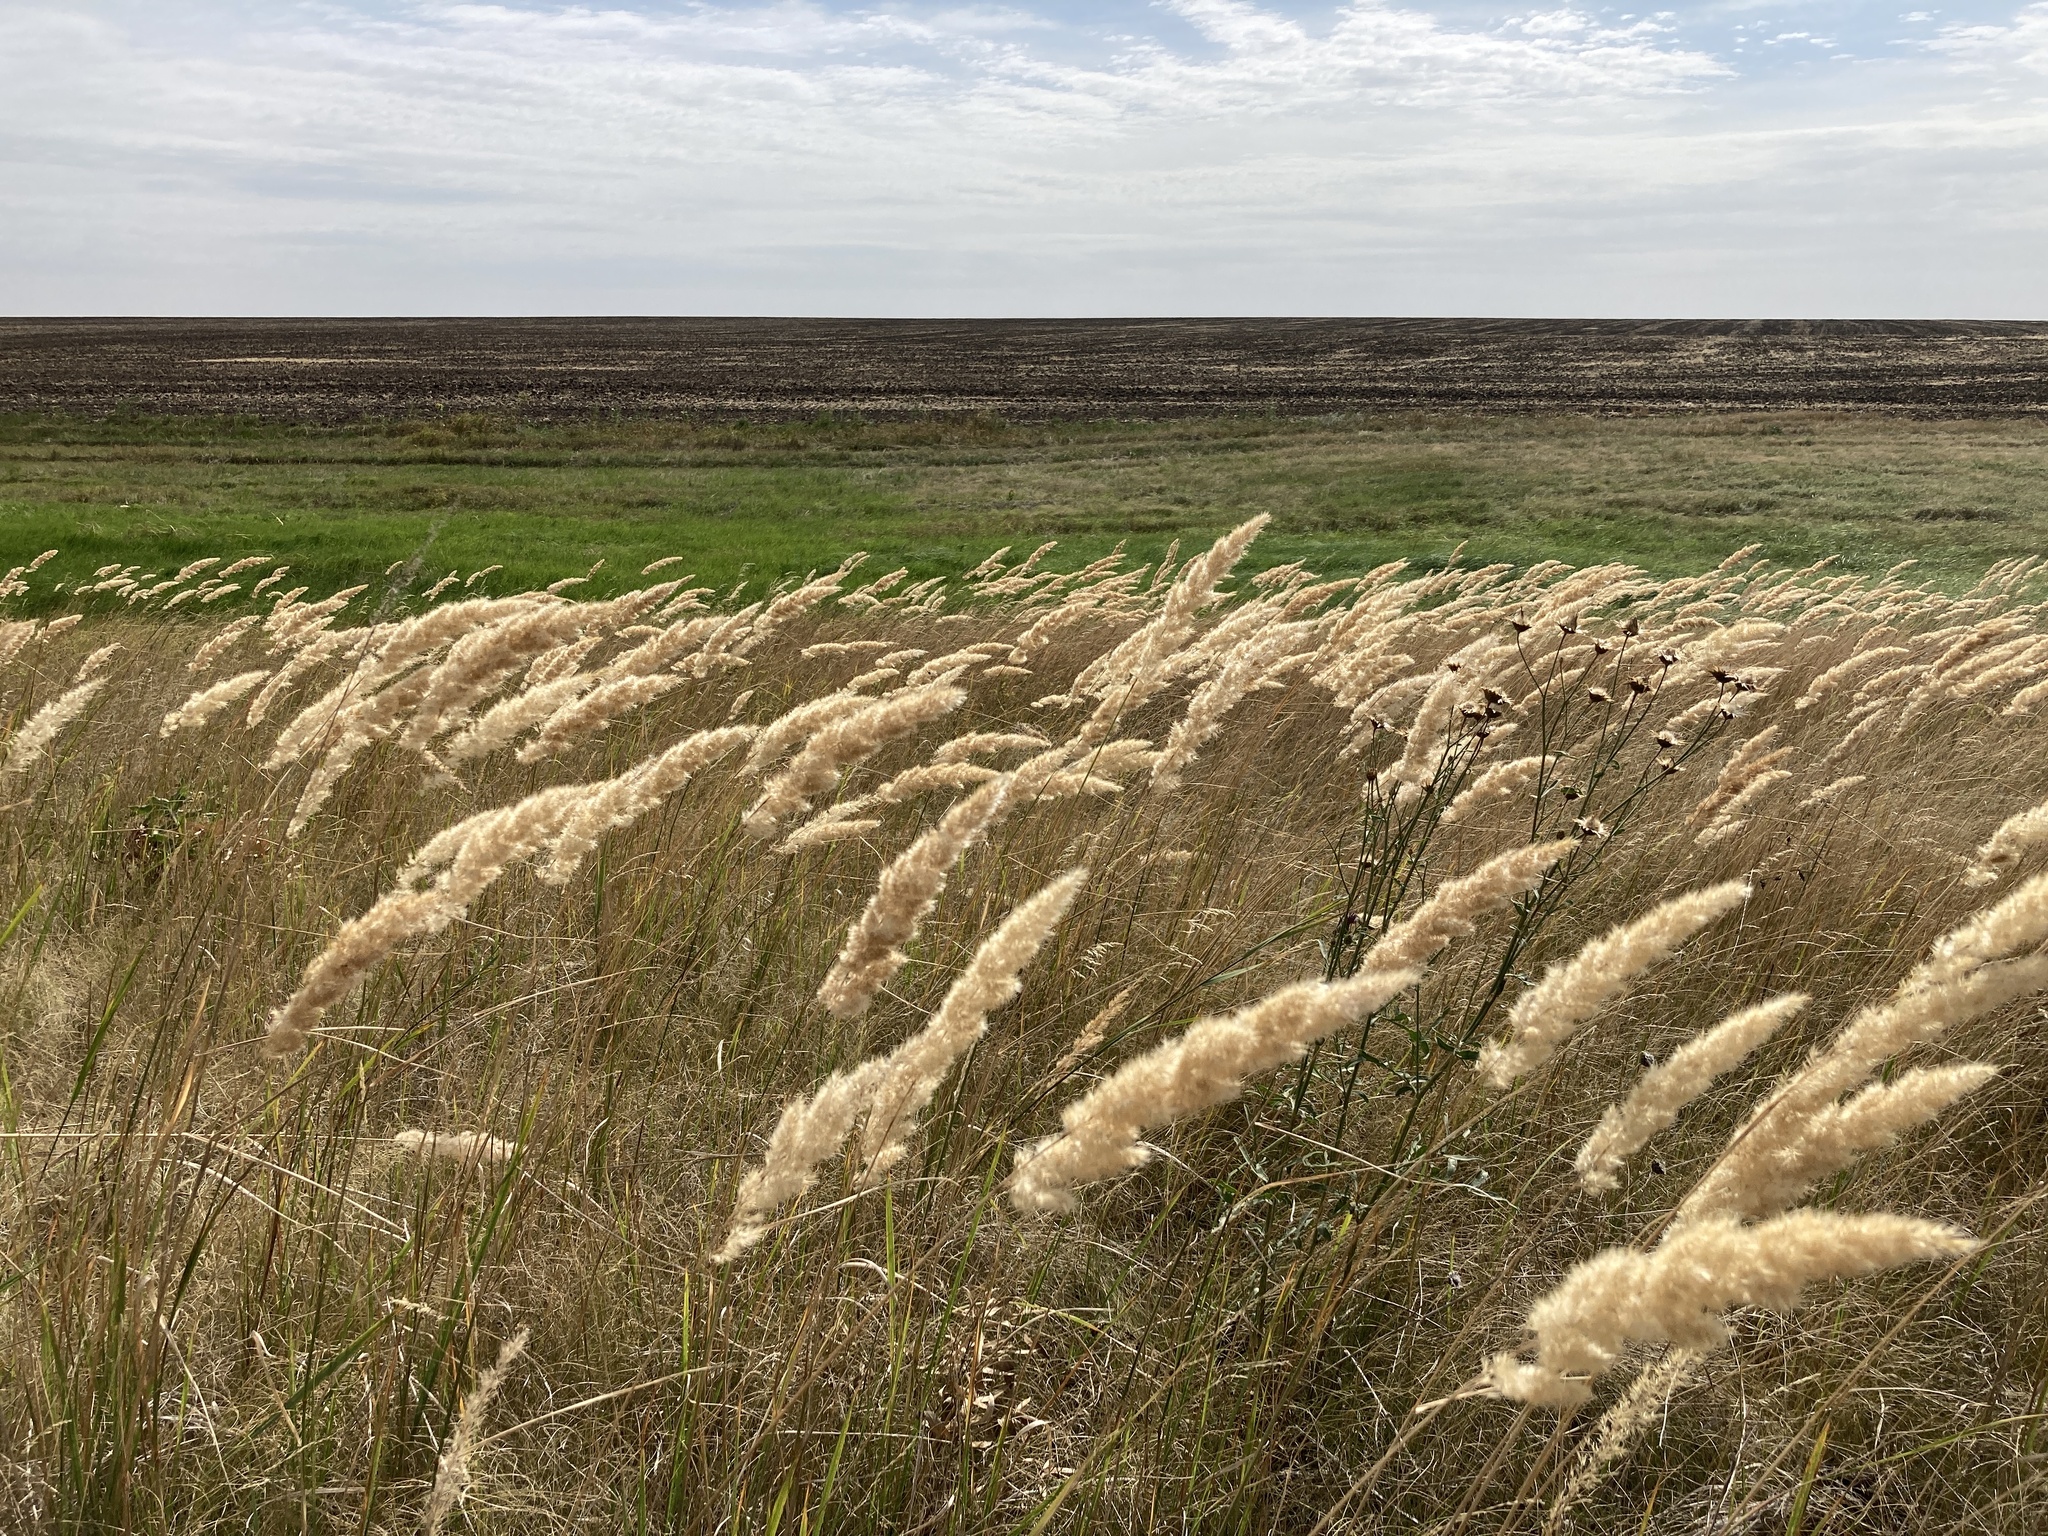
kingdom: Plantae
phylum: Tracheophyta
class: Liliopsida
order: Poales
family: Poaceae
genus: Calamagrostis
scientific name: Calamagrostis epigejos
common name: Wood small-reed
